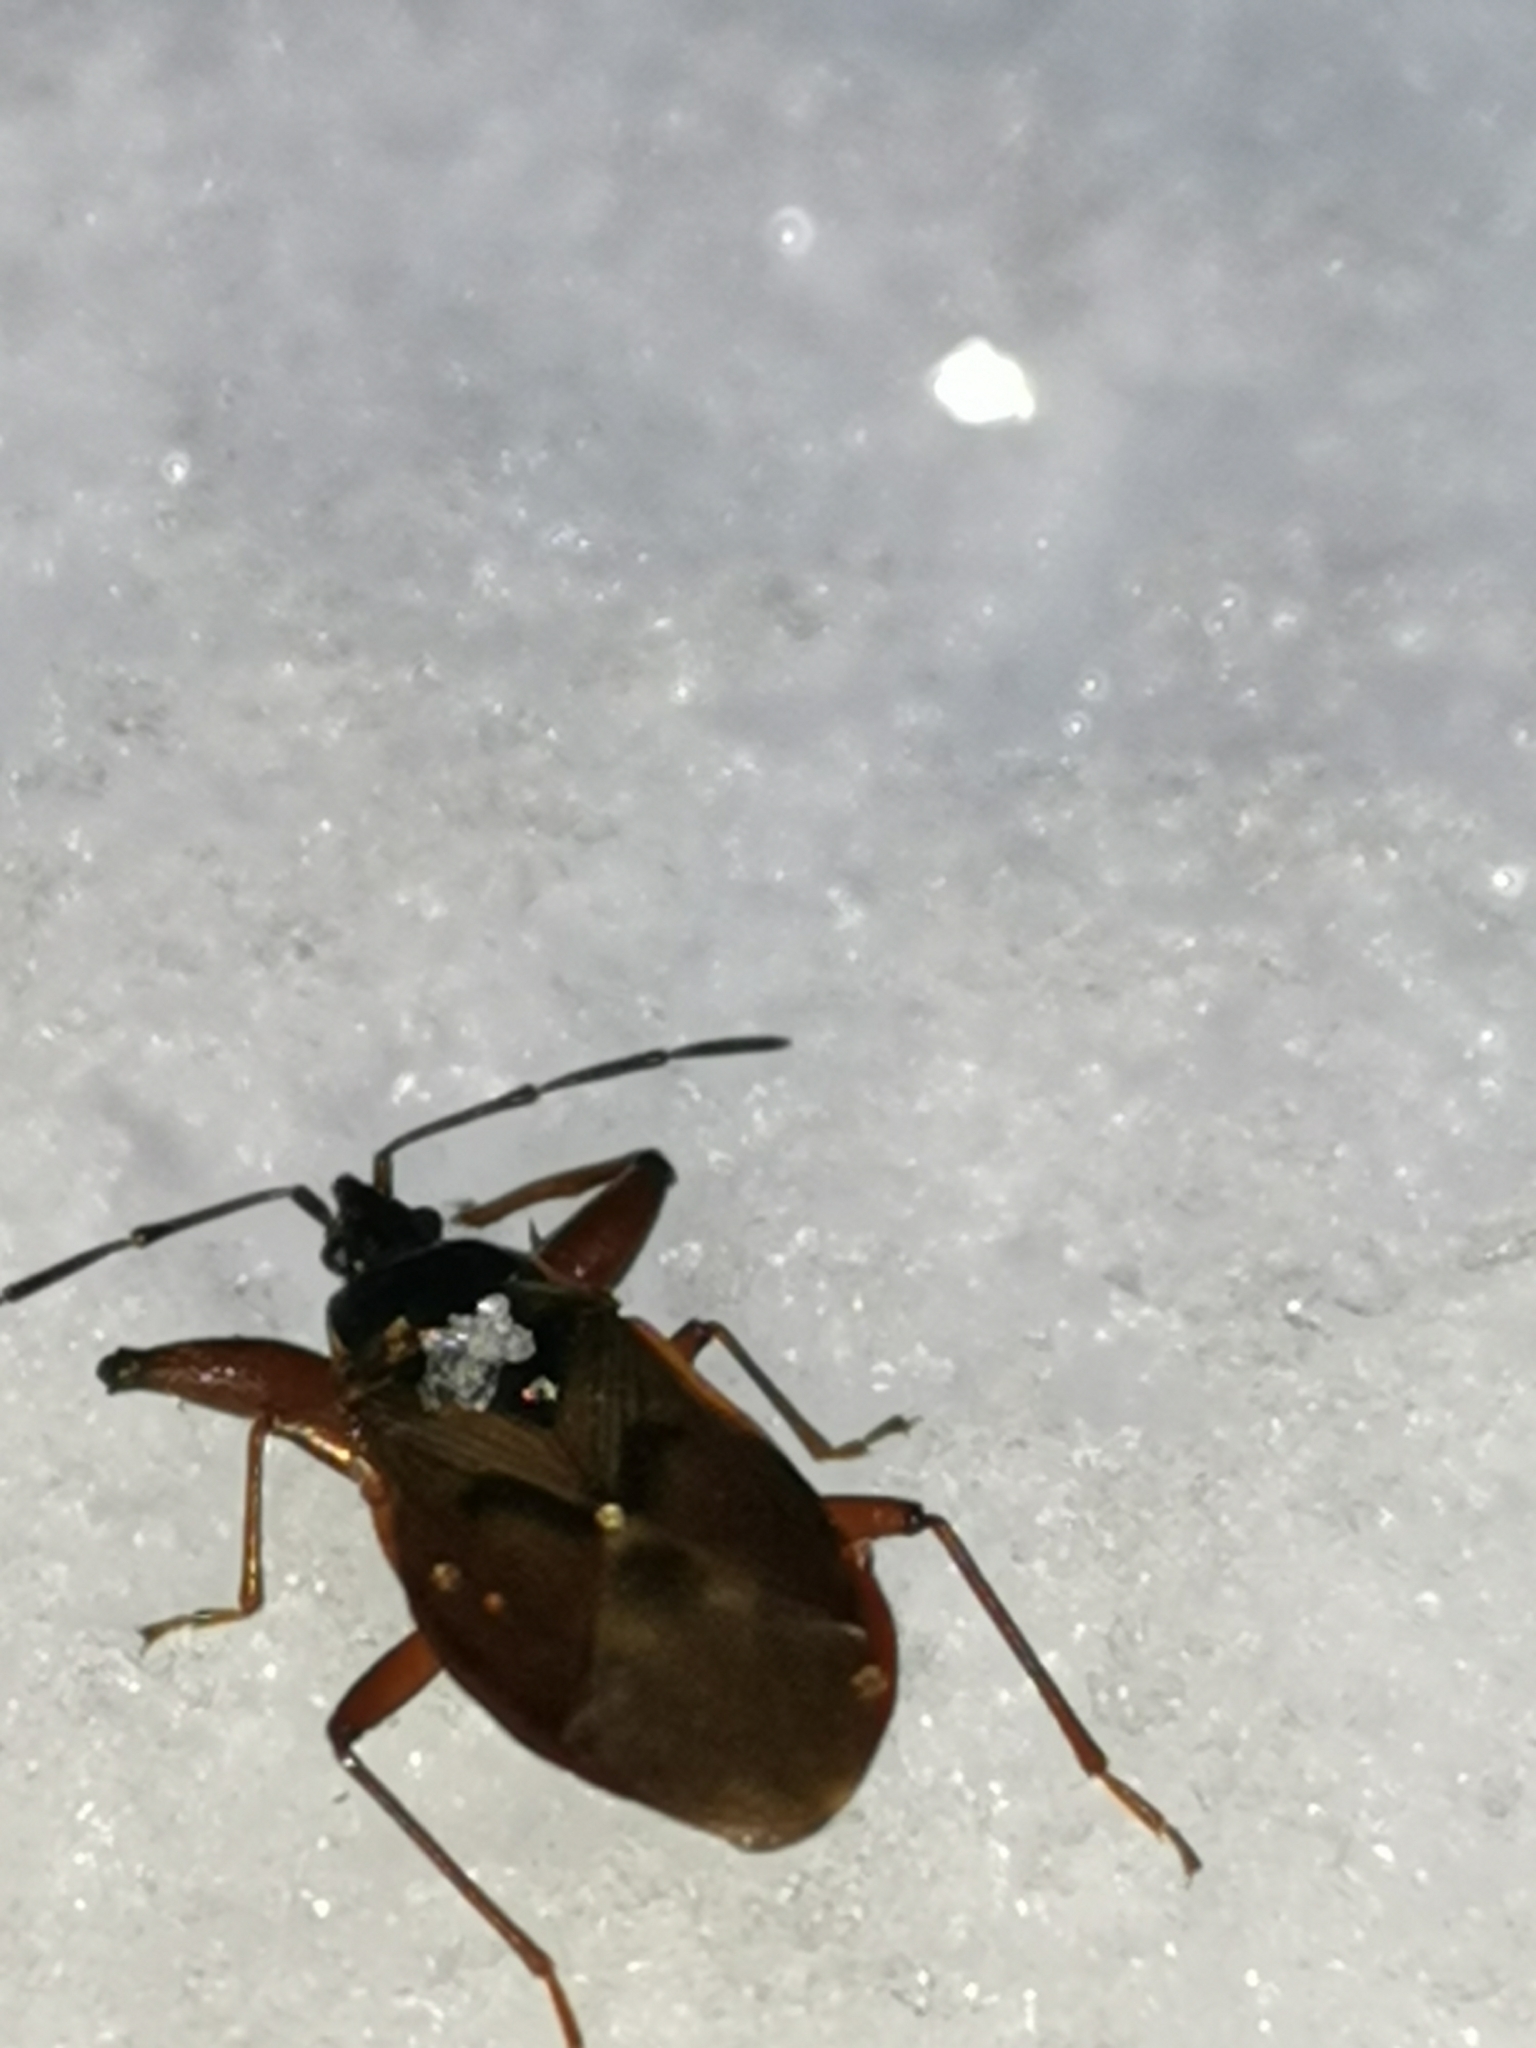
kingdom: Animalia
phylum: Arthropoda
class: Insecta
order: Hemiptera
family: Rhyparochromidae
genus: Gastrodes
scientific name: Gastrodes abietum
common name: Spruce cone bug
